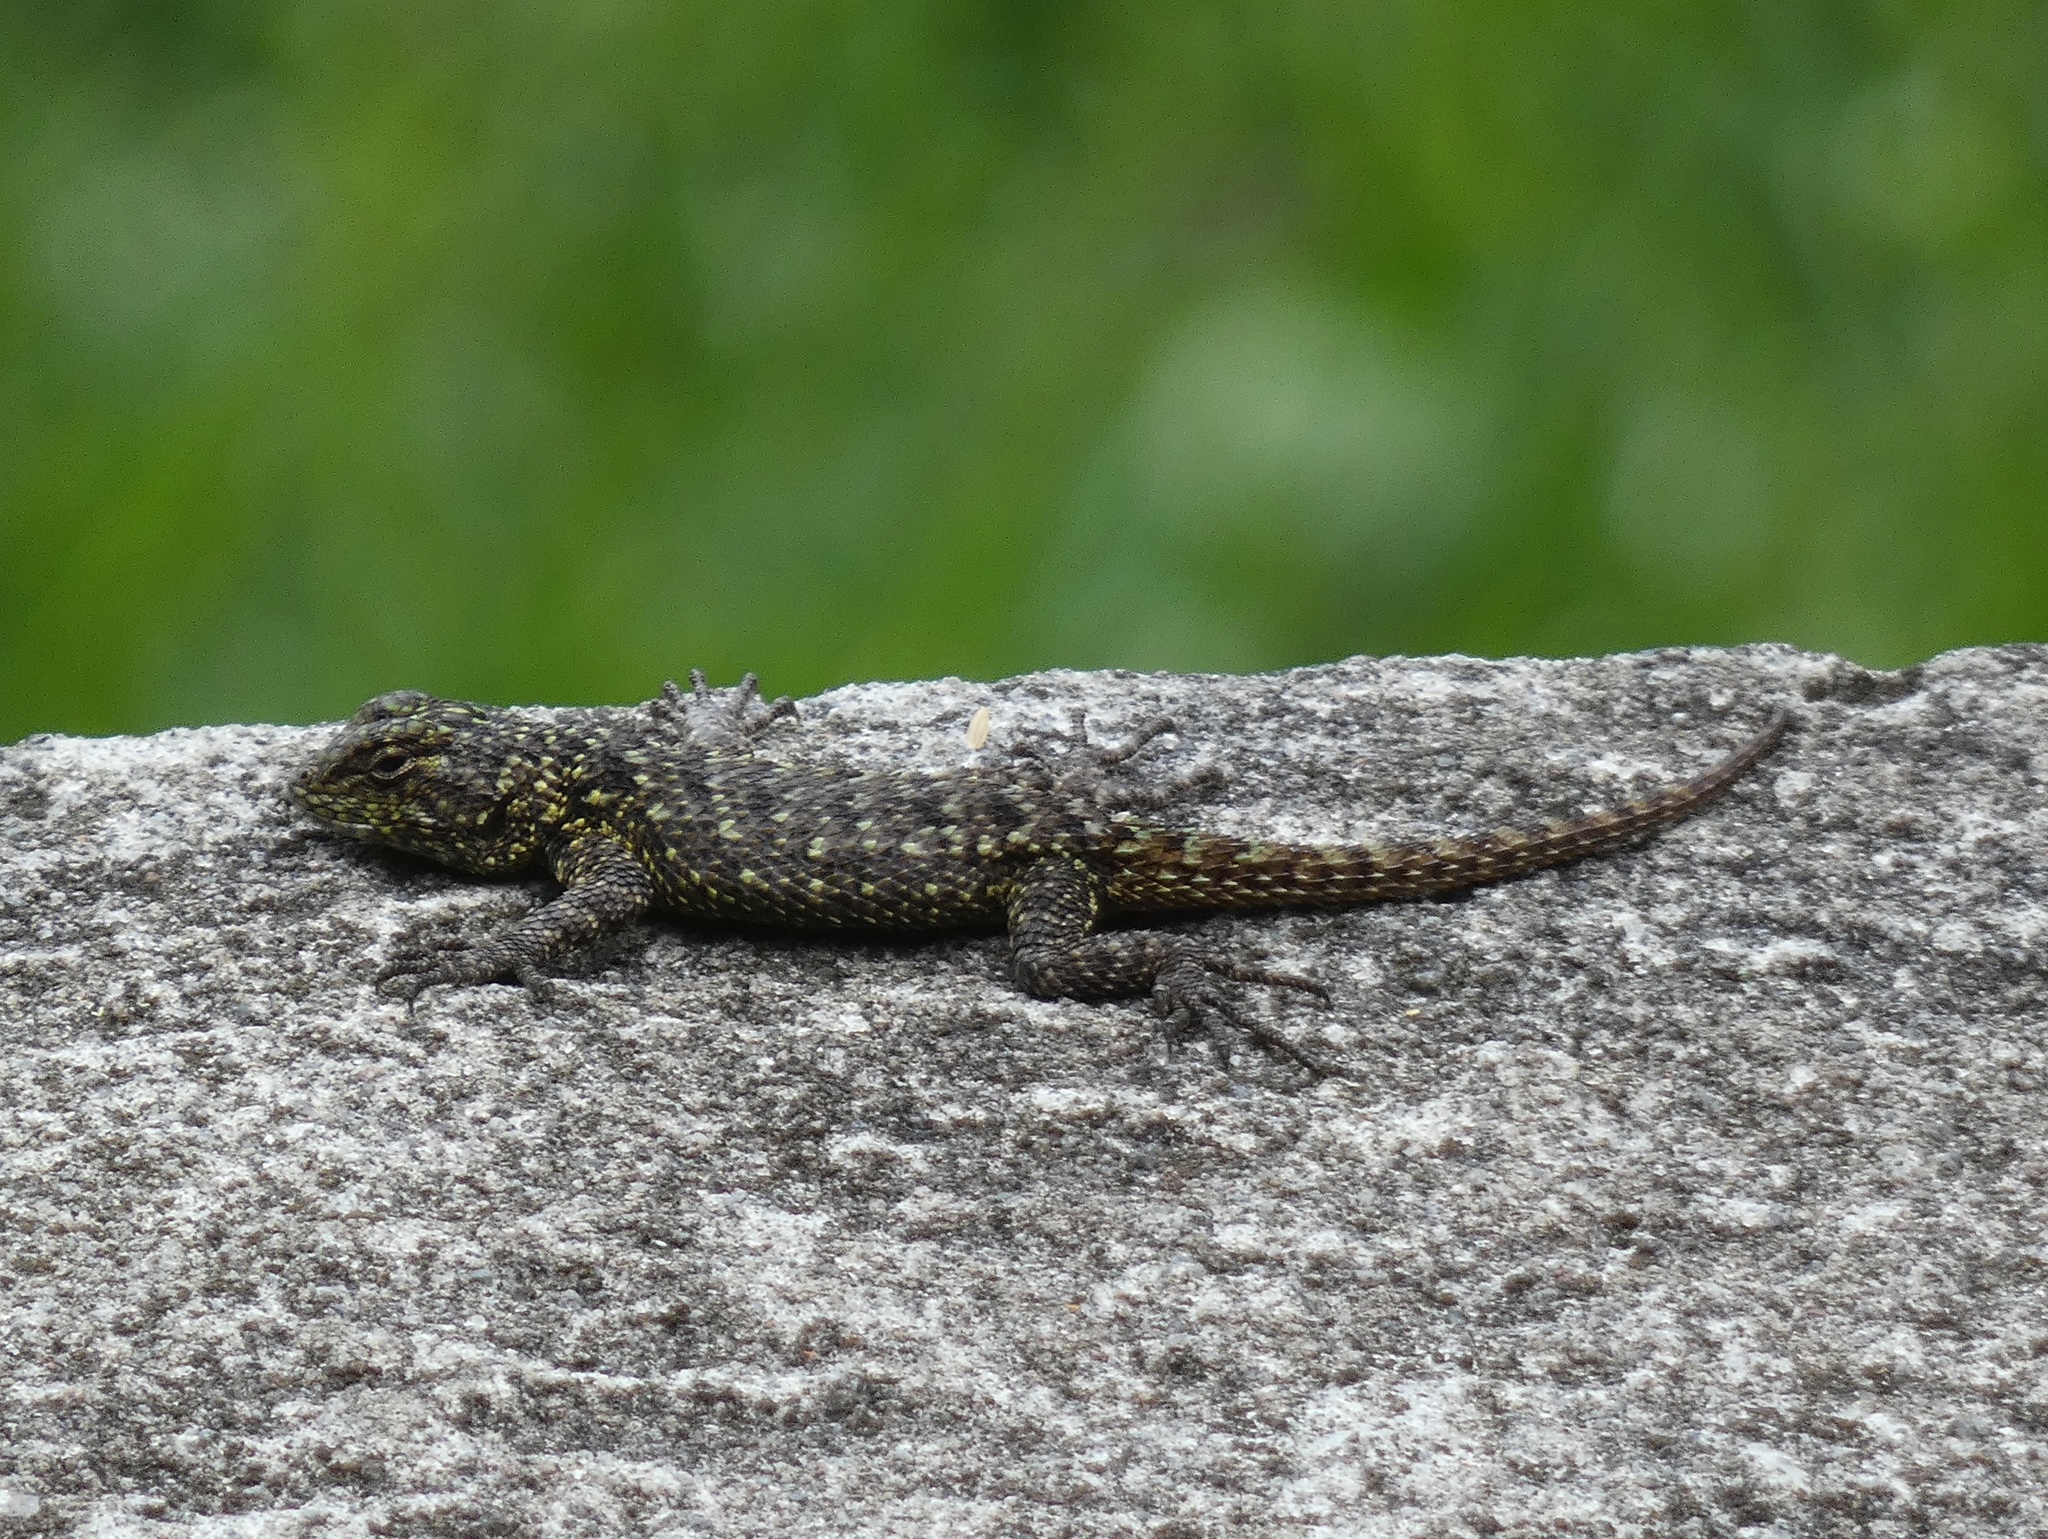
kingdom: Animalia
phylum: Chordata
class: Squamata
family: Phrynosomatidae
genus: Sceloporus
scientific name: Sceloporus malachiticus
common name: Green spiny lizard
